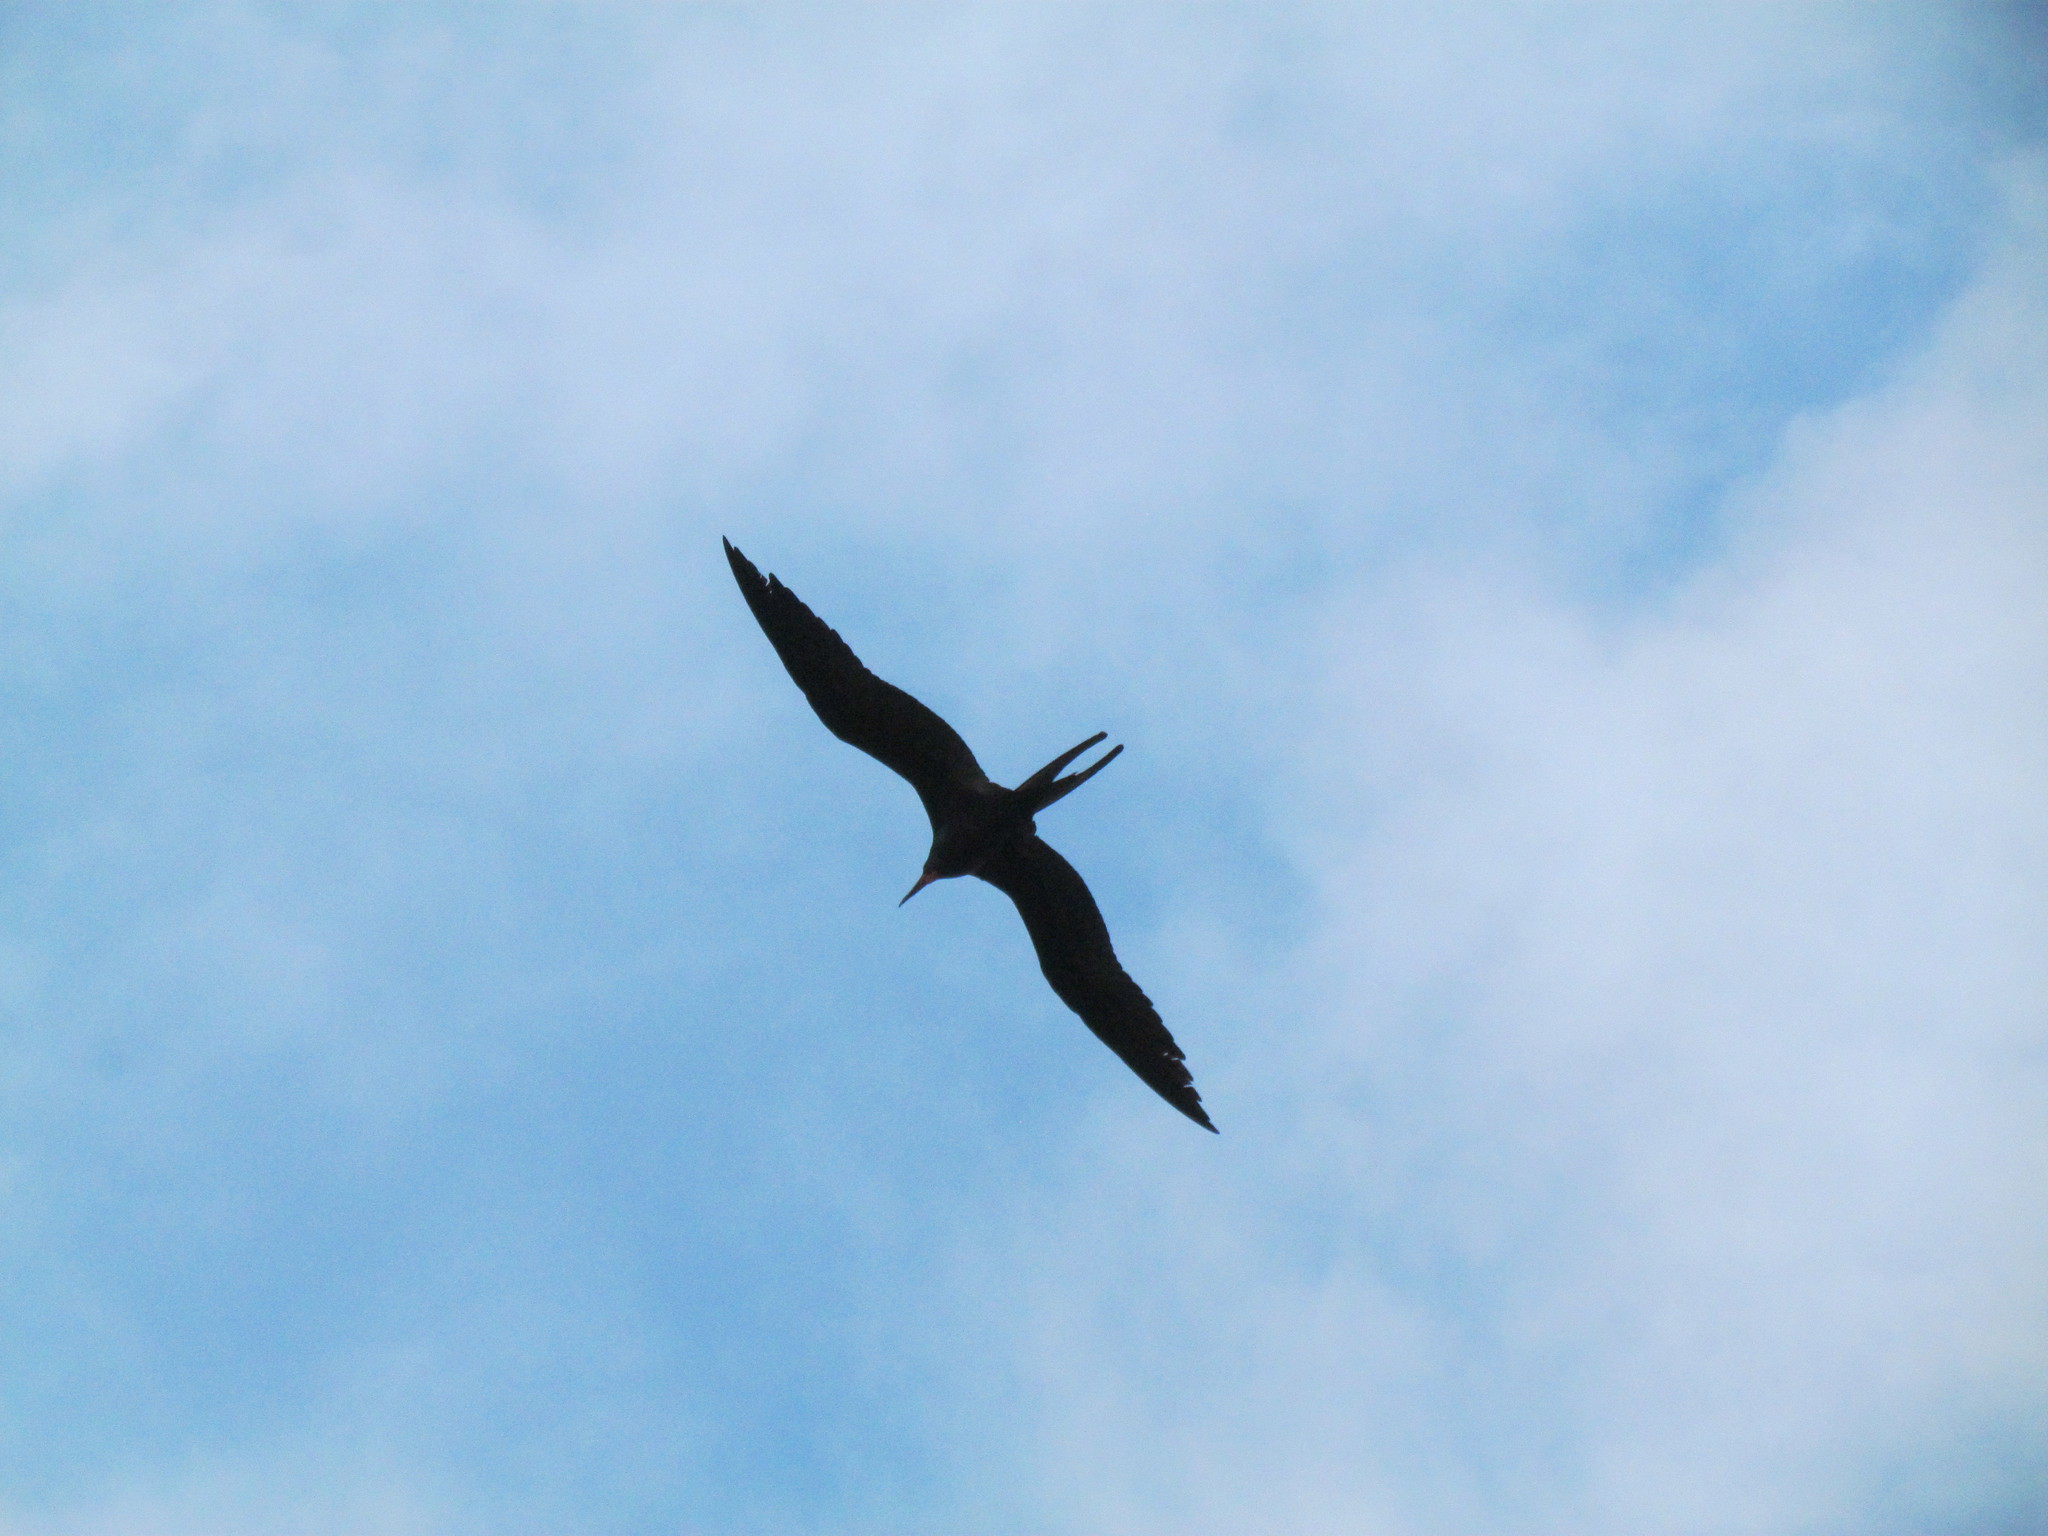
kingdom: Animalia
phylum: Chordata
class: Aves
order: Suliformes
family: Fregatidae
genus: Fregata
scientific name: Fregata magnificens
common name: Magnificent frigatebird
